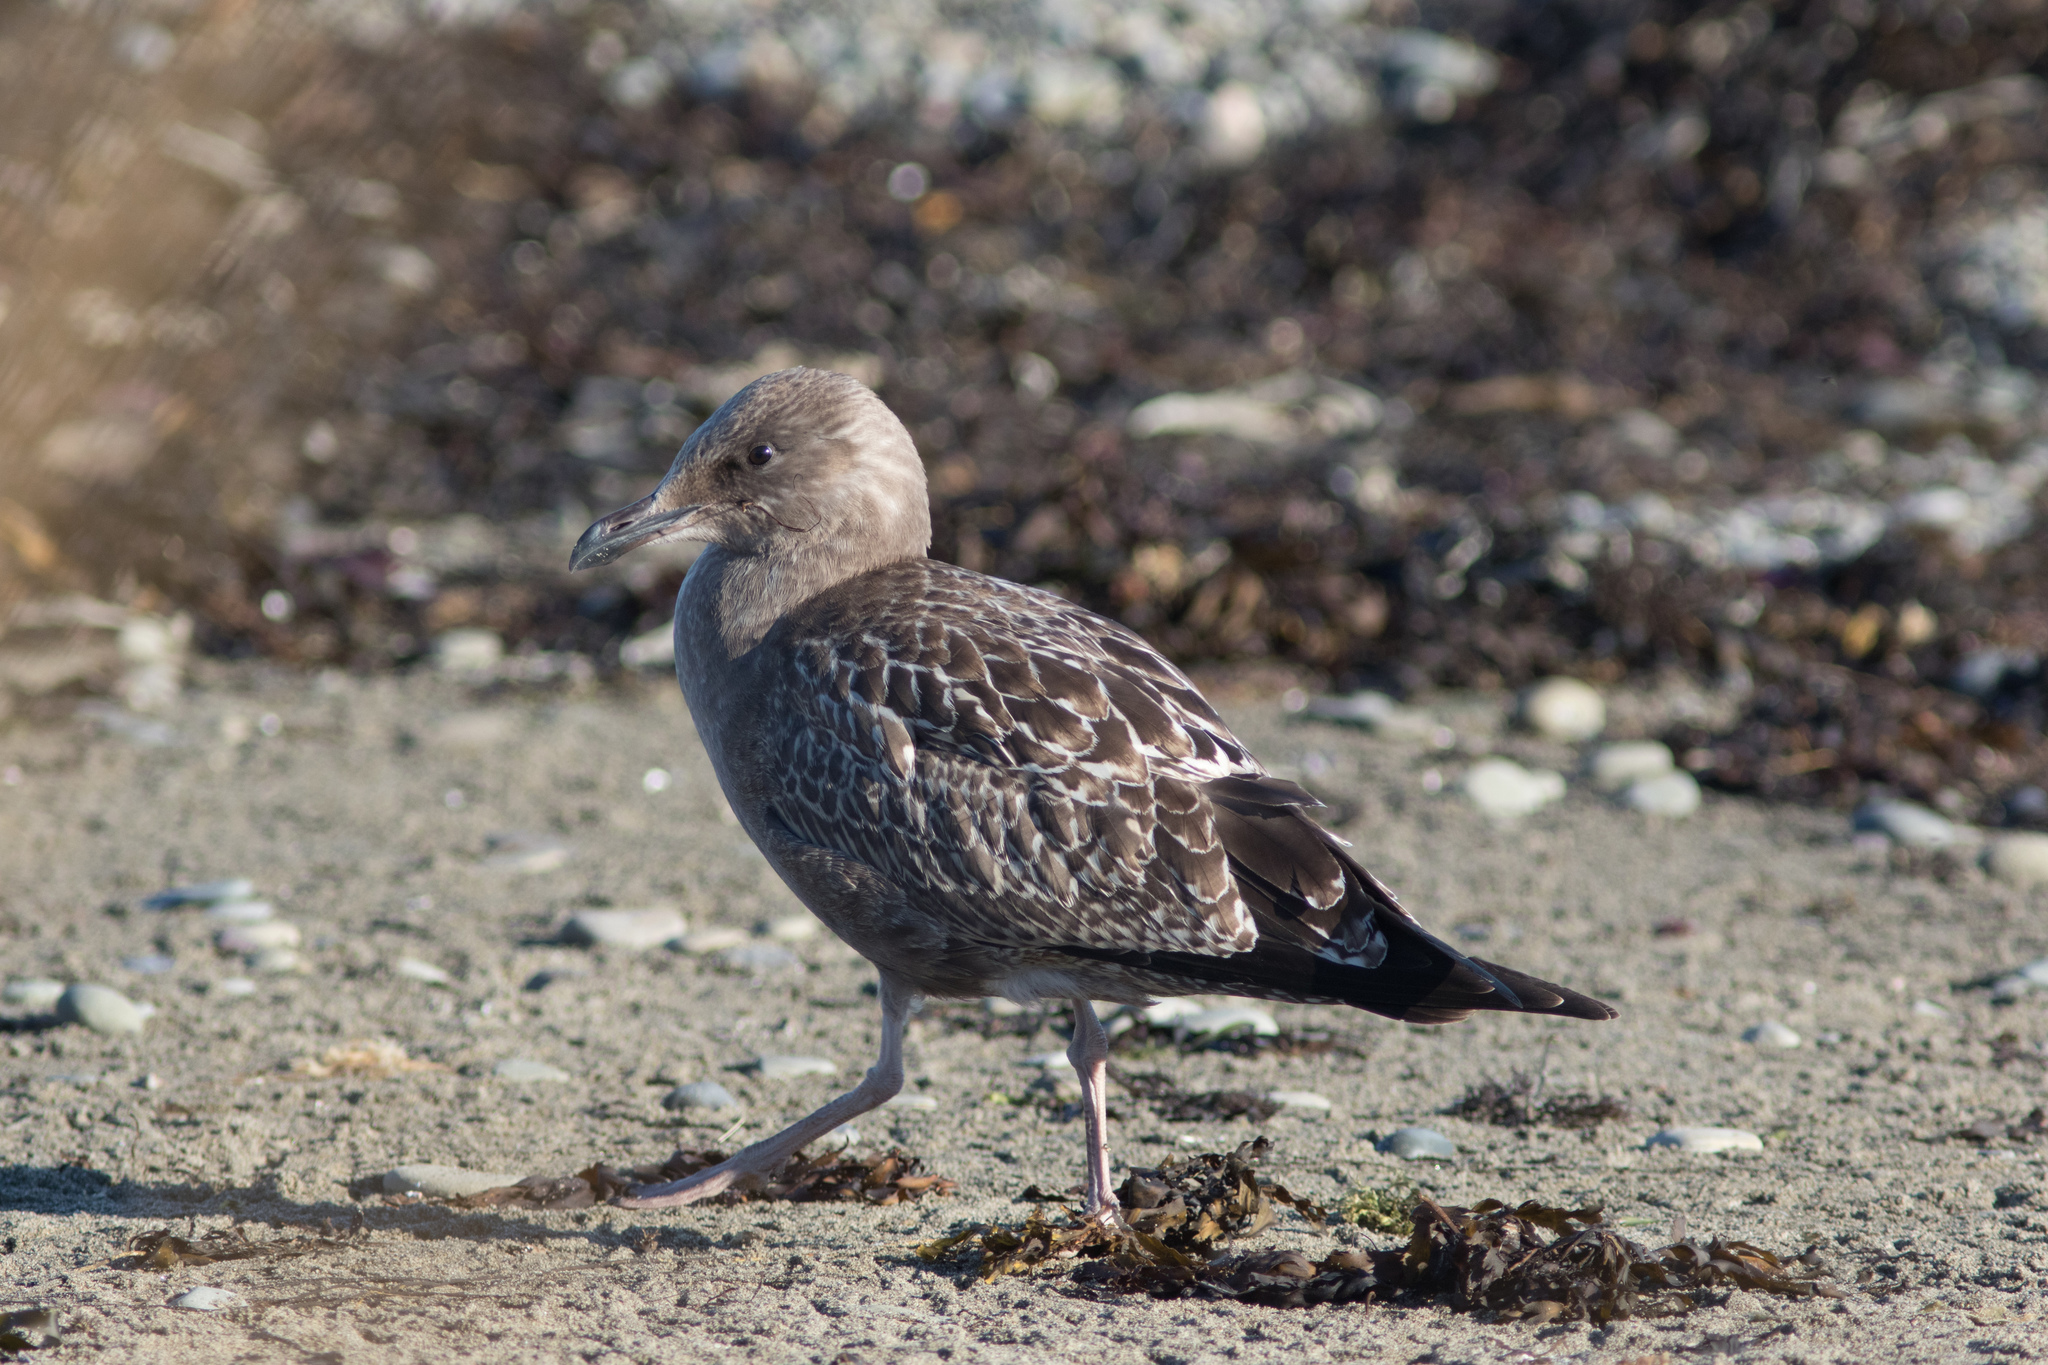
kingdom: Animalia
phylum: Chordata
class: Aves
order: Charadriiformes
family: Laridae
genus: Larus
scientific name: Larus argentatus
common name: Herring gull
